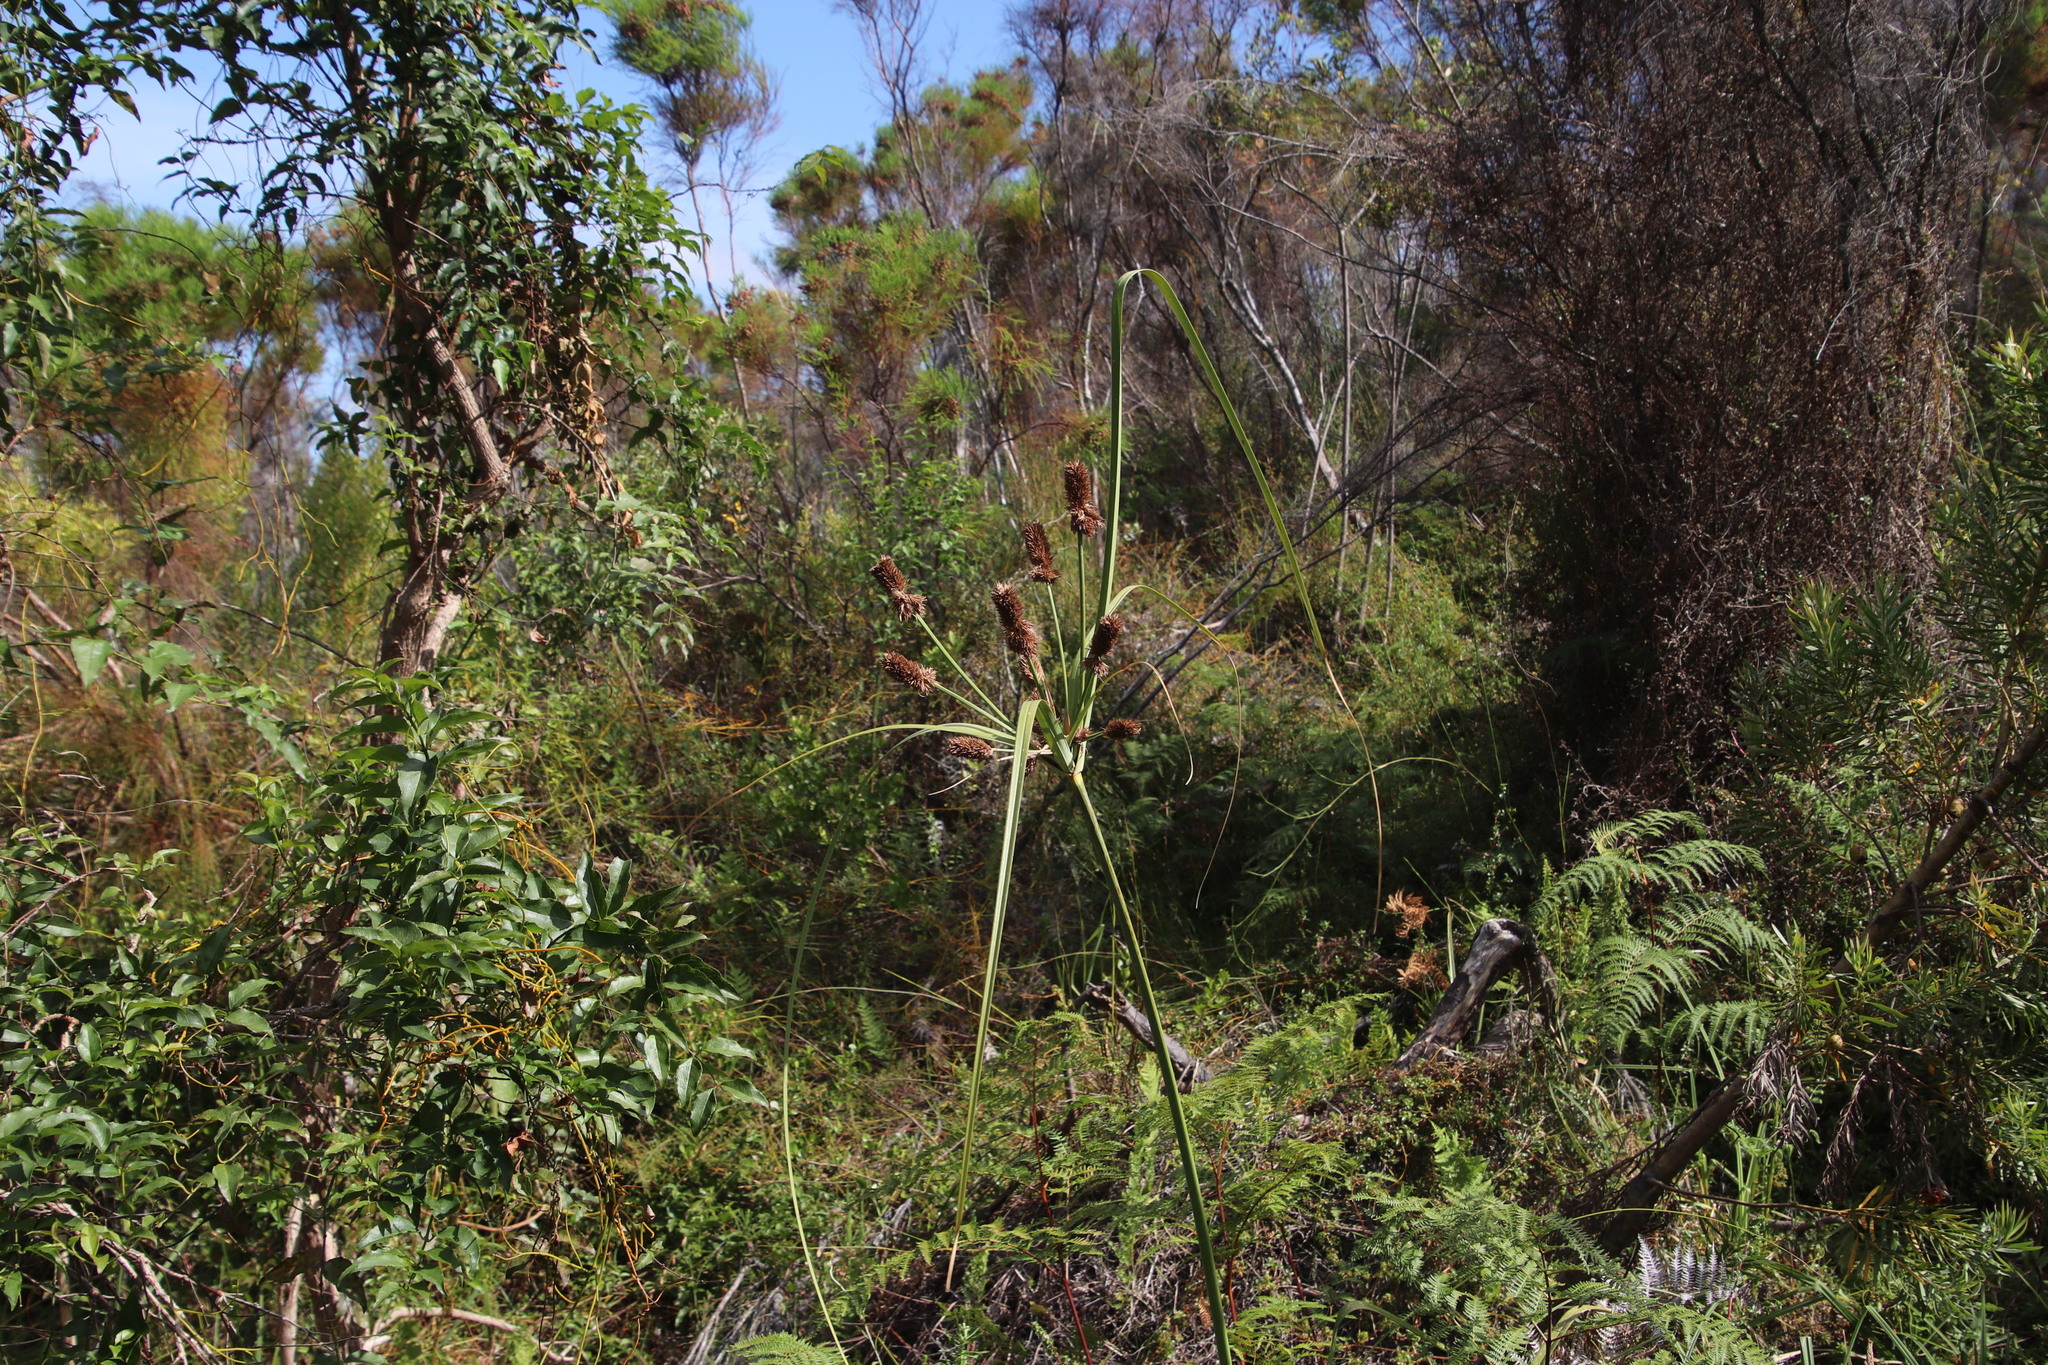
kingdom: Plantae
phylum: Tracheophyta
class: Liliopsida
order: Poales
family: Cyperaceae
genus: Cyperus
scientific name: Cyperus thunbergii
